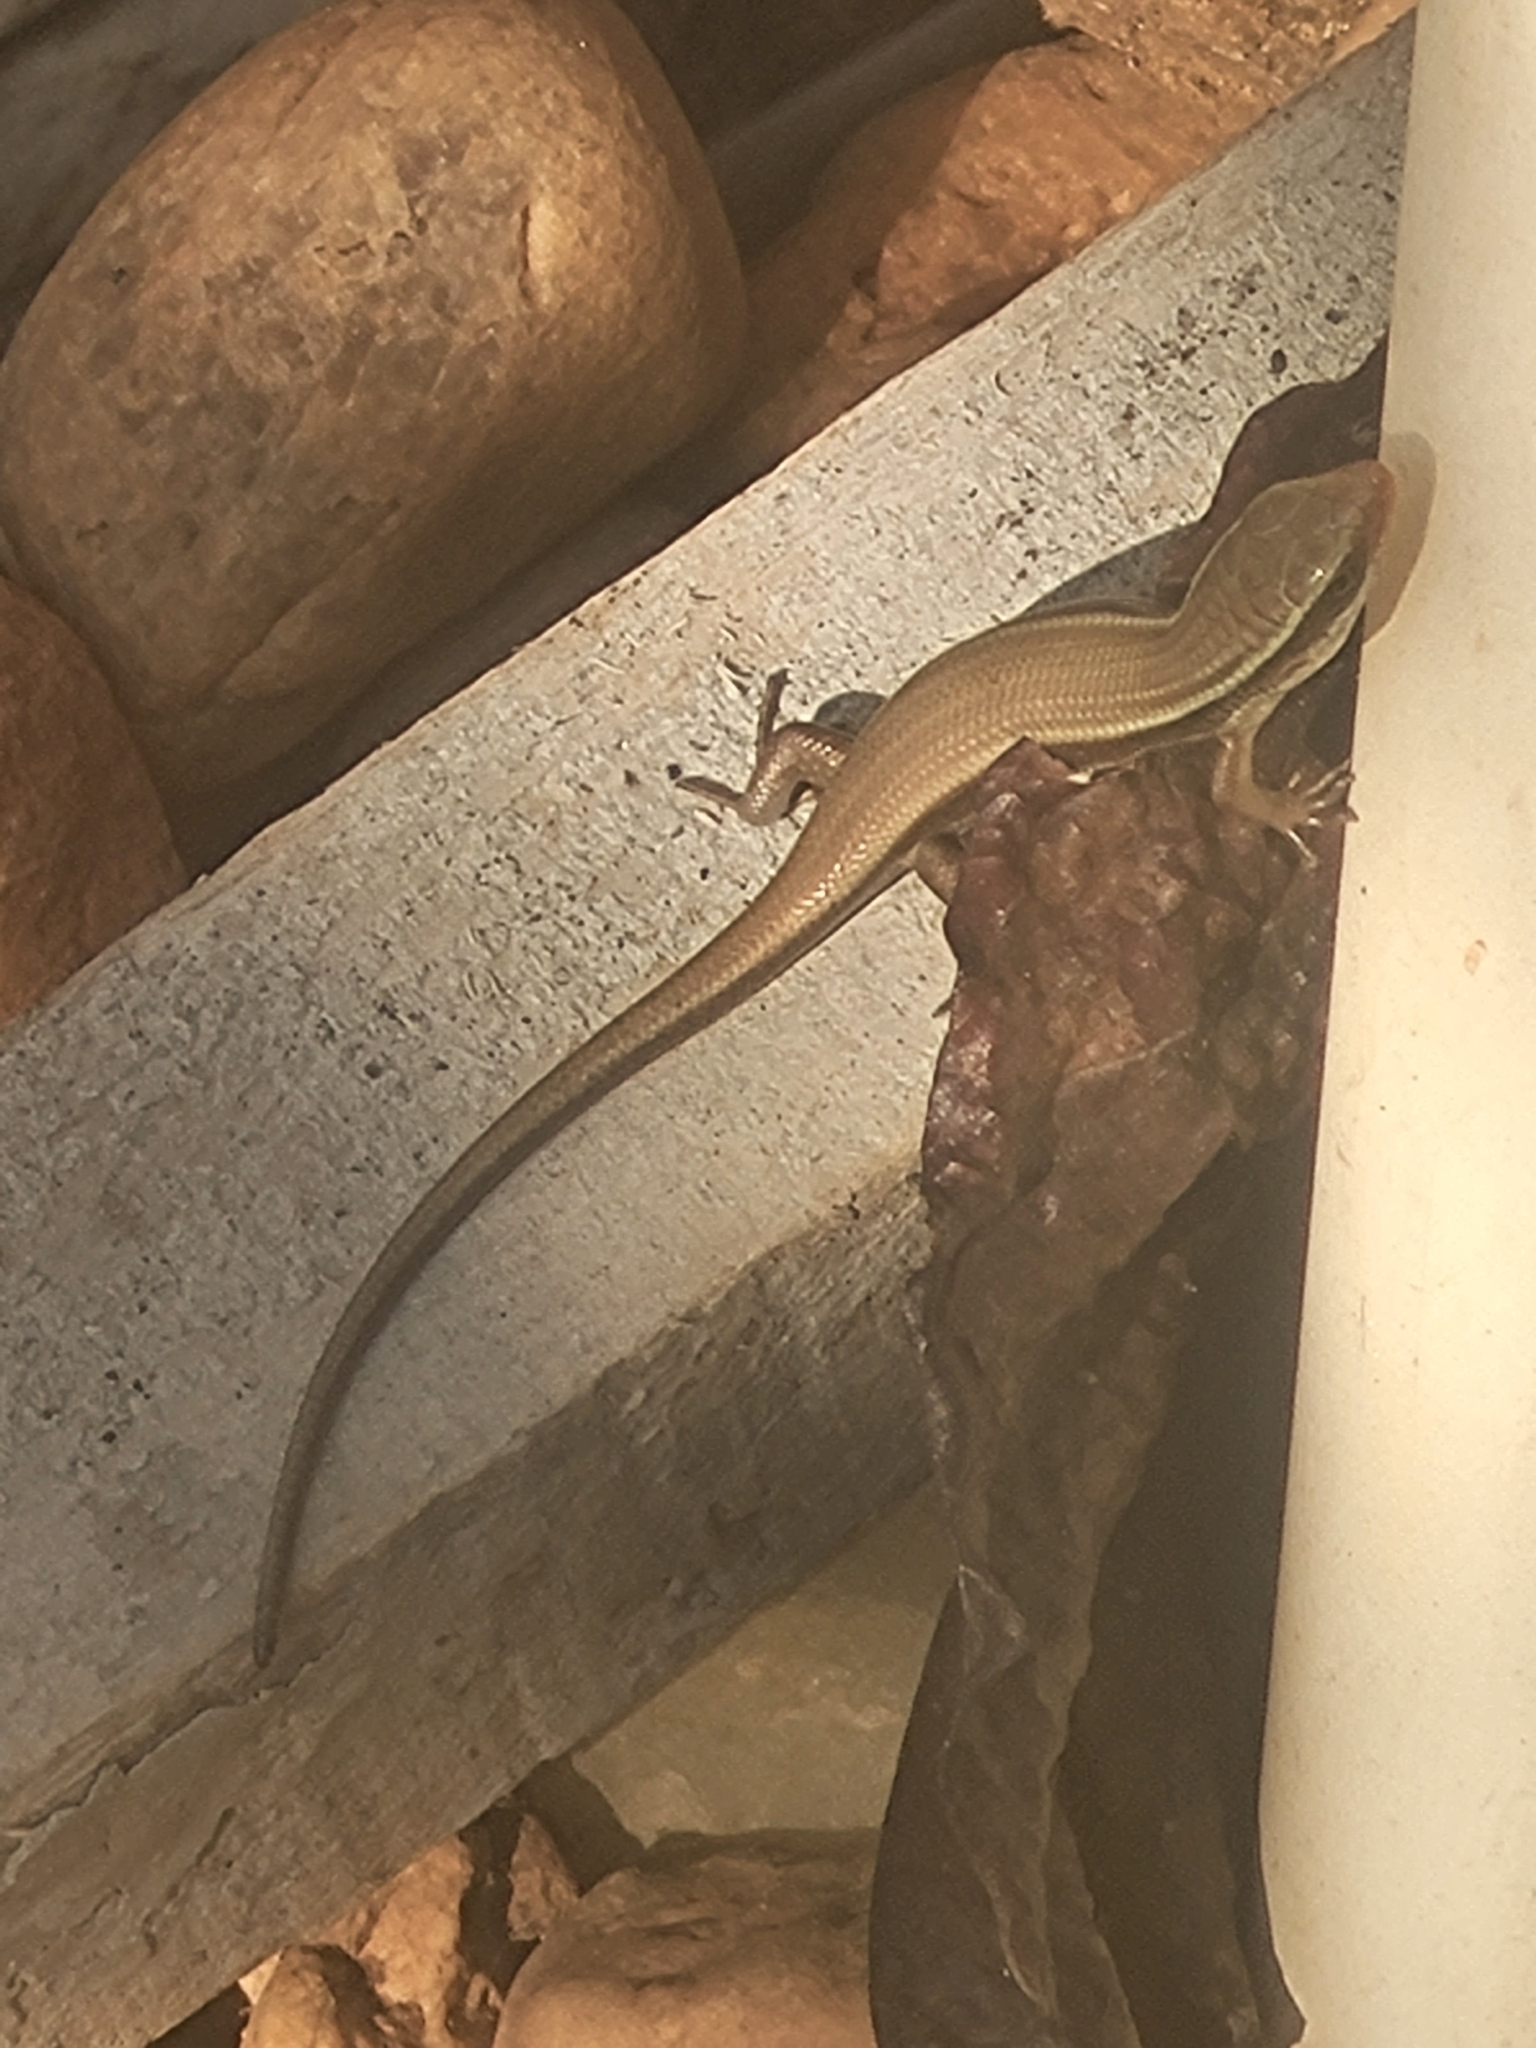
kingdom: Animalia
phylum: Chordata
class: Squamata
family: Scincidae
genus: Eutropis
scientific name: Eutropis carinata
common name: Keeled indian mabuya
